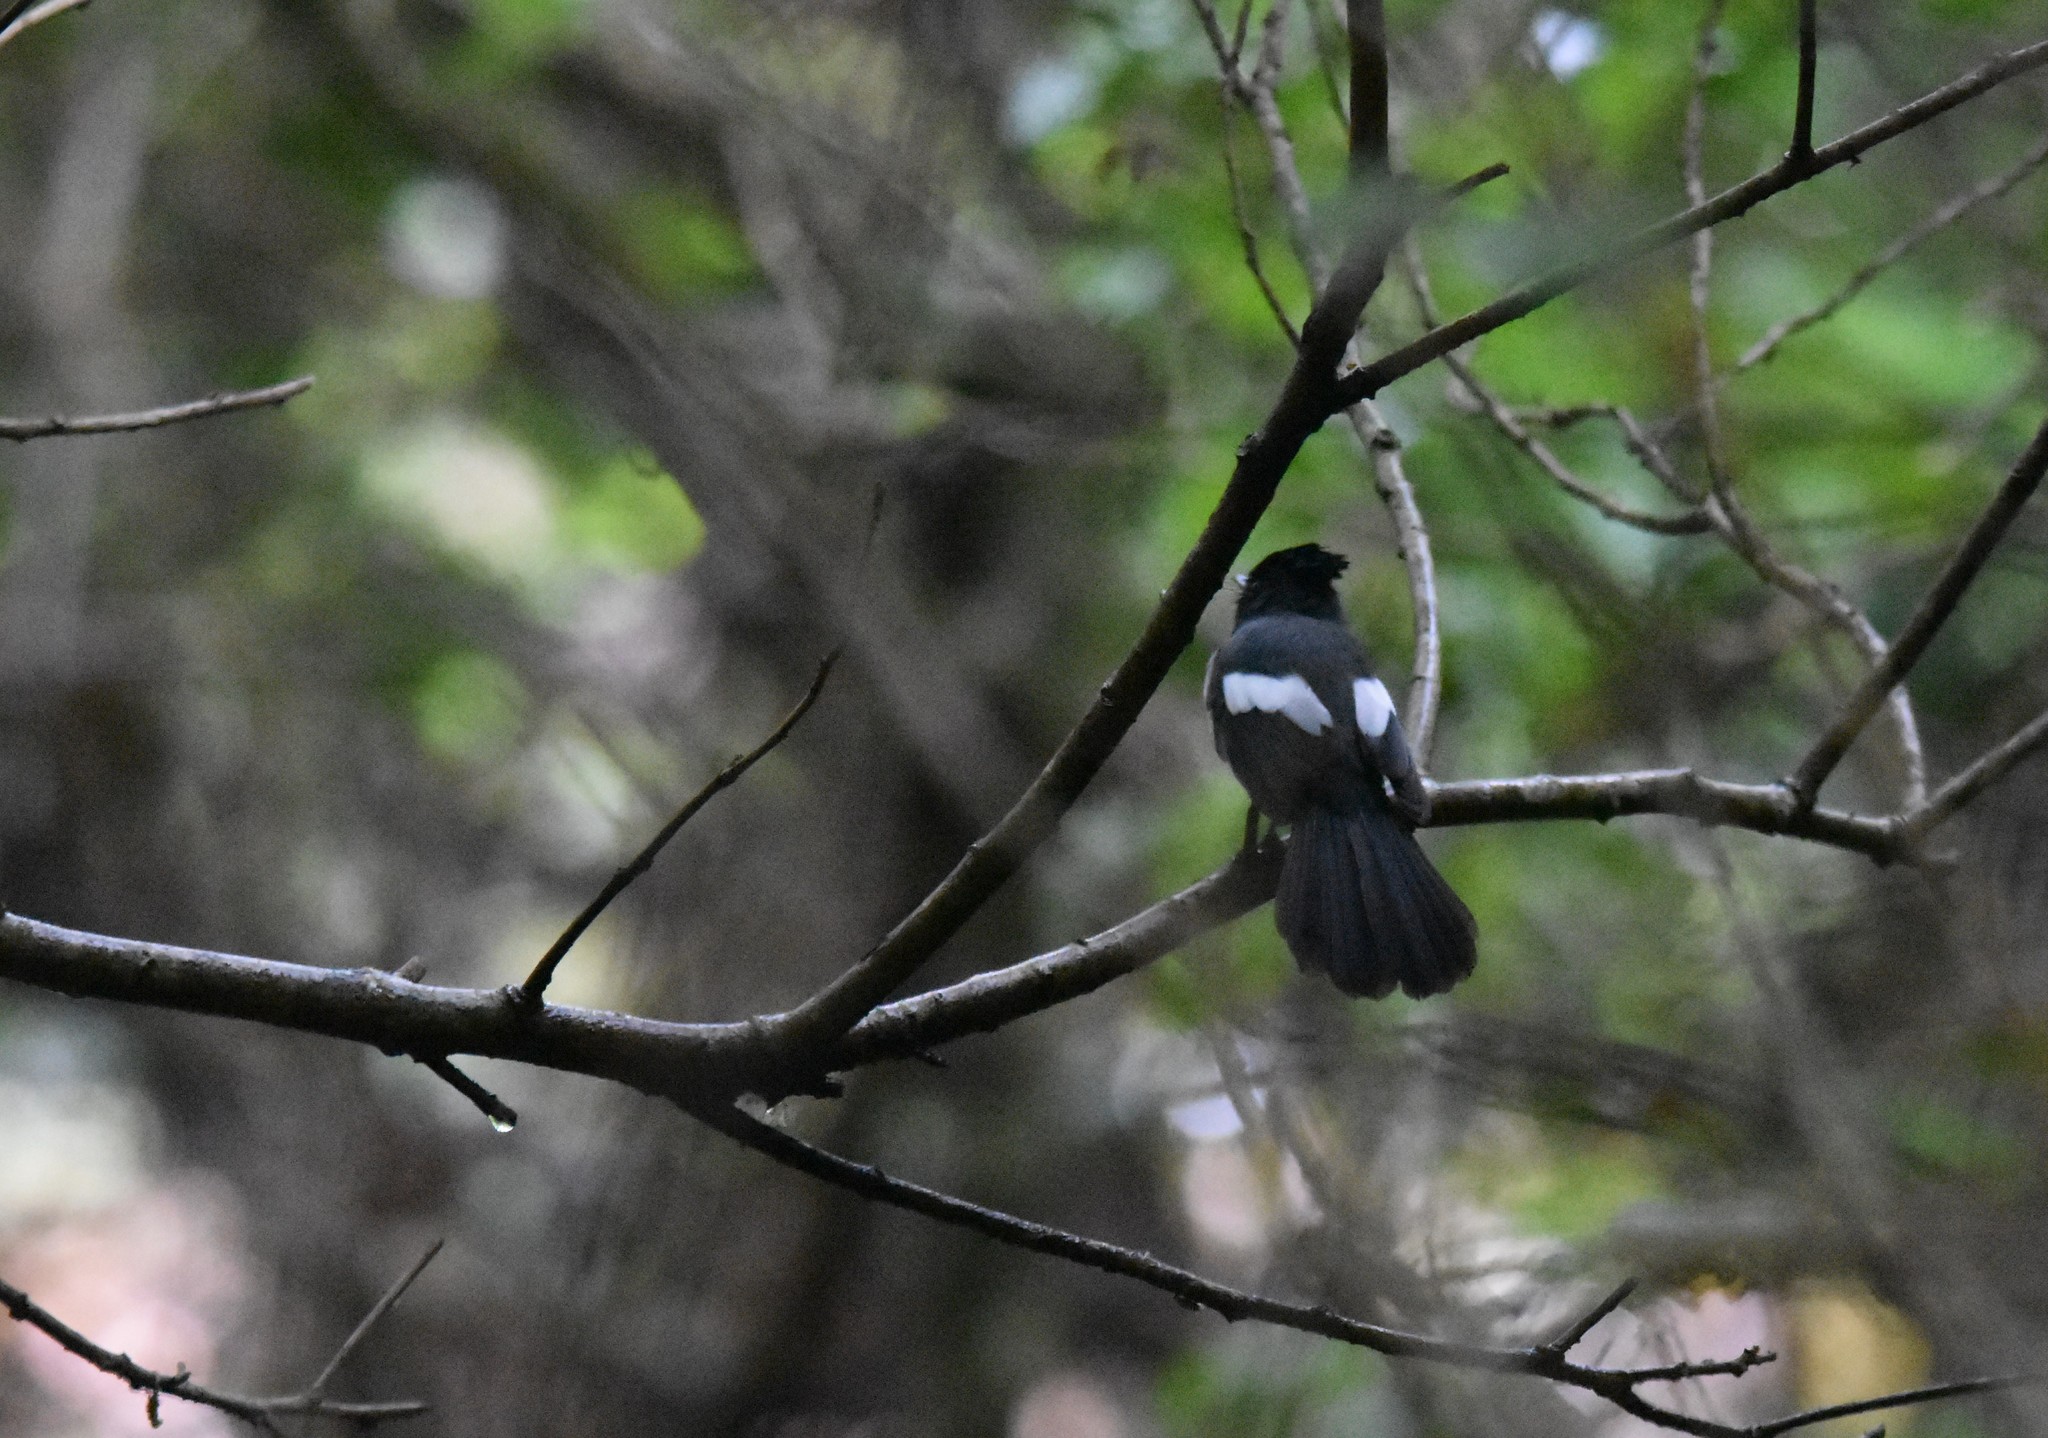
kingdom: Animalia
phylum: Chordata
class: Aves
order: Passeriformes
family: Monarchidae
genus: Trochocercus
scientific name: Trochocercus cyanomelas
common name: Blue-mantled crested flycatcher
